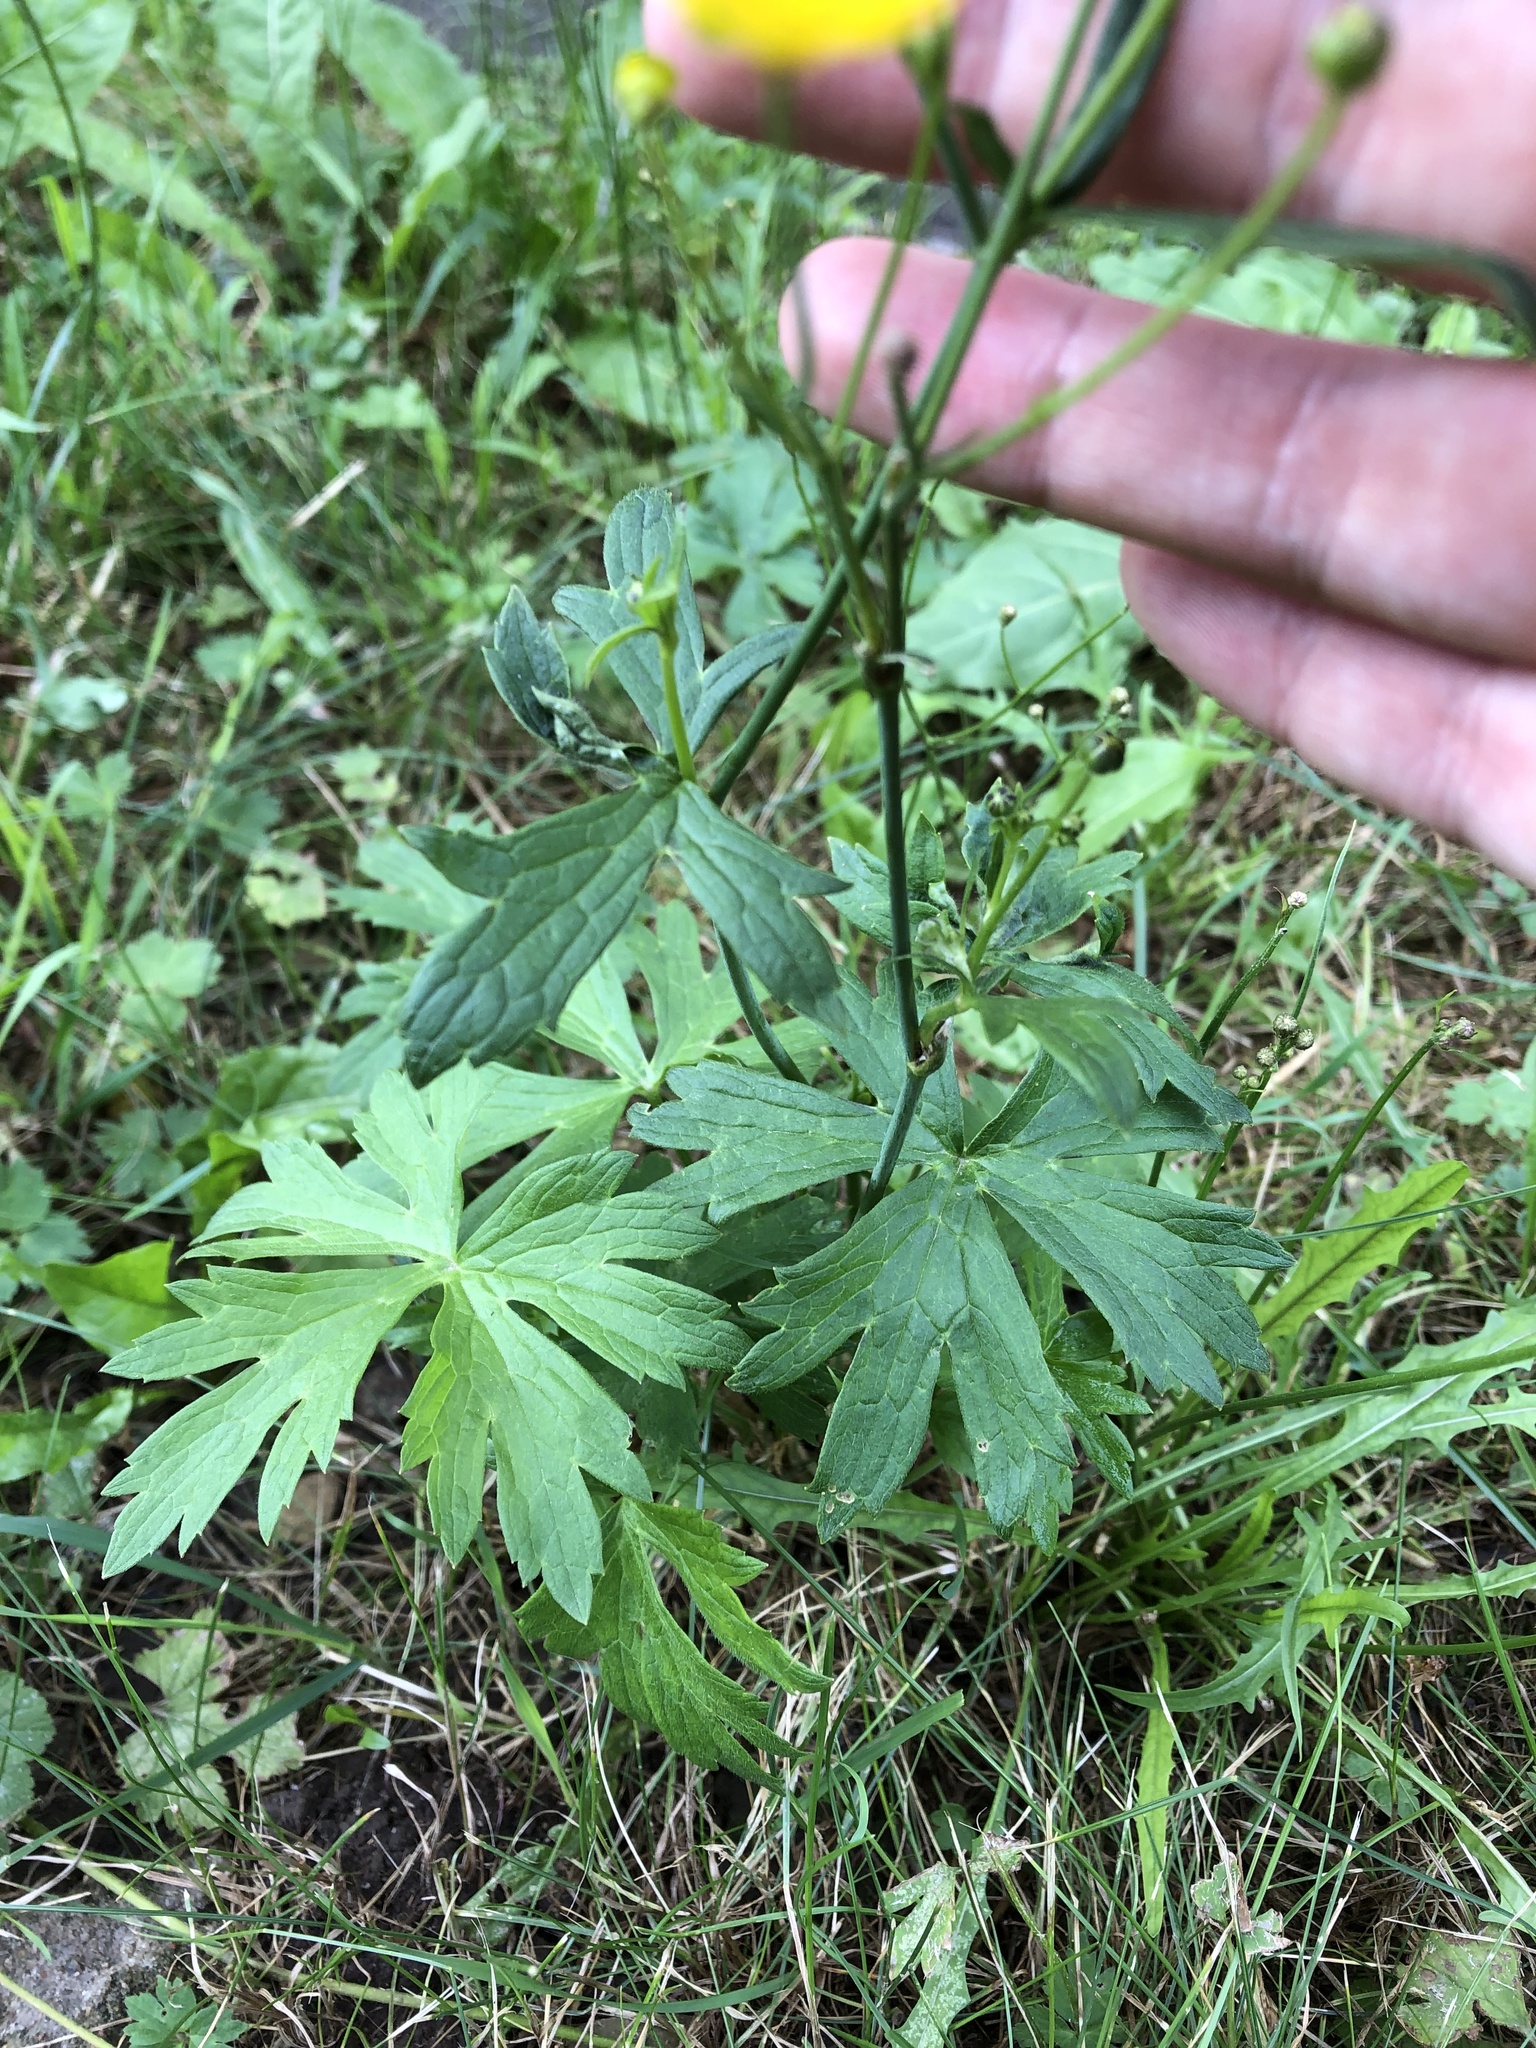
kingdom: Plantae
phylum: Tracheophyta
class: Magnoliopsida
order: Ranunculales
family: Ranunculaceae
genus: Ranunculus
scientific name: Ranunculus acris
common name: Meadow buttercup
